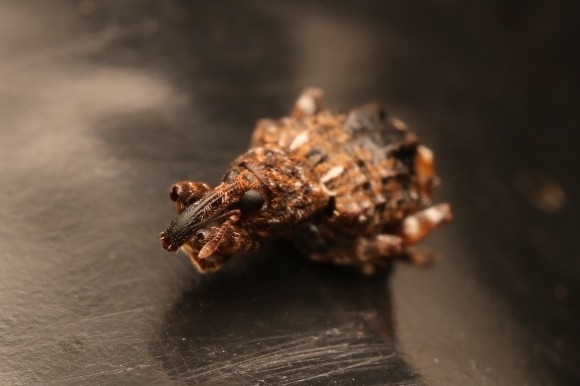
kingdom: Animalia
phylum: Arthropoda
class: Insecta
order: Coleoptera
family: Curculionidae
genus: Conotrachelus
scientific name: Conotrachelus nenuphar
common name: Plum curculio
